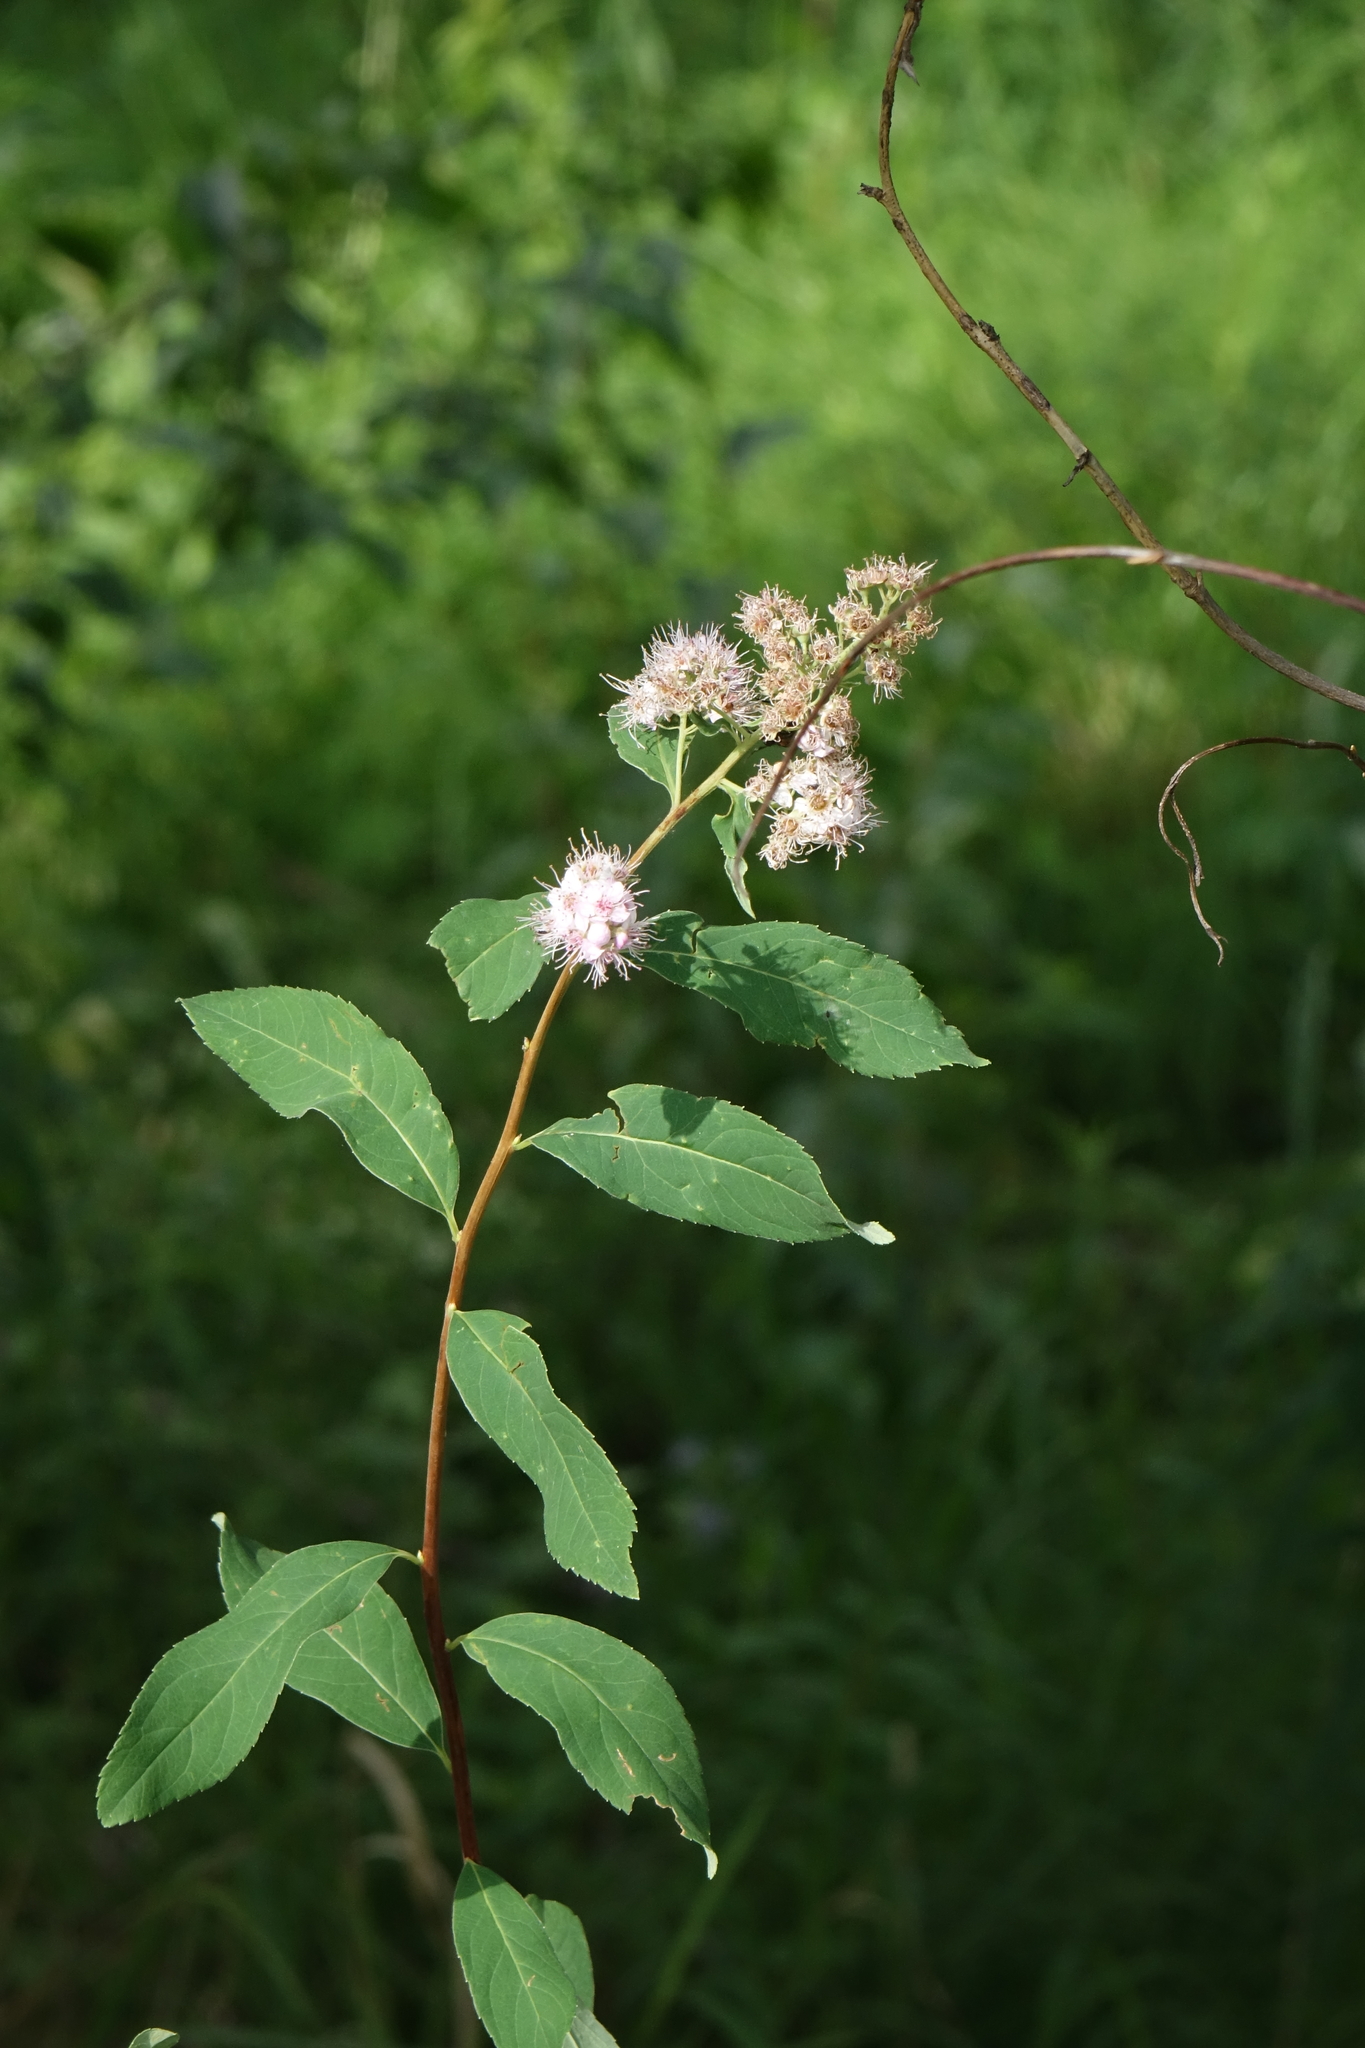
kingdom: Plantae
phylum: Tracheophyta
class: Magnoliopsida
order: Rosales
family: Rosaceae
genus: Spiraea
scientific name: Spiraea salicifolia
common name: Bridewort
